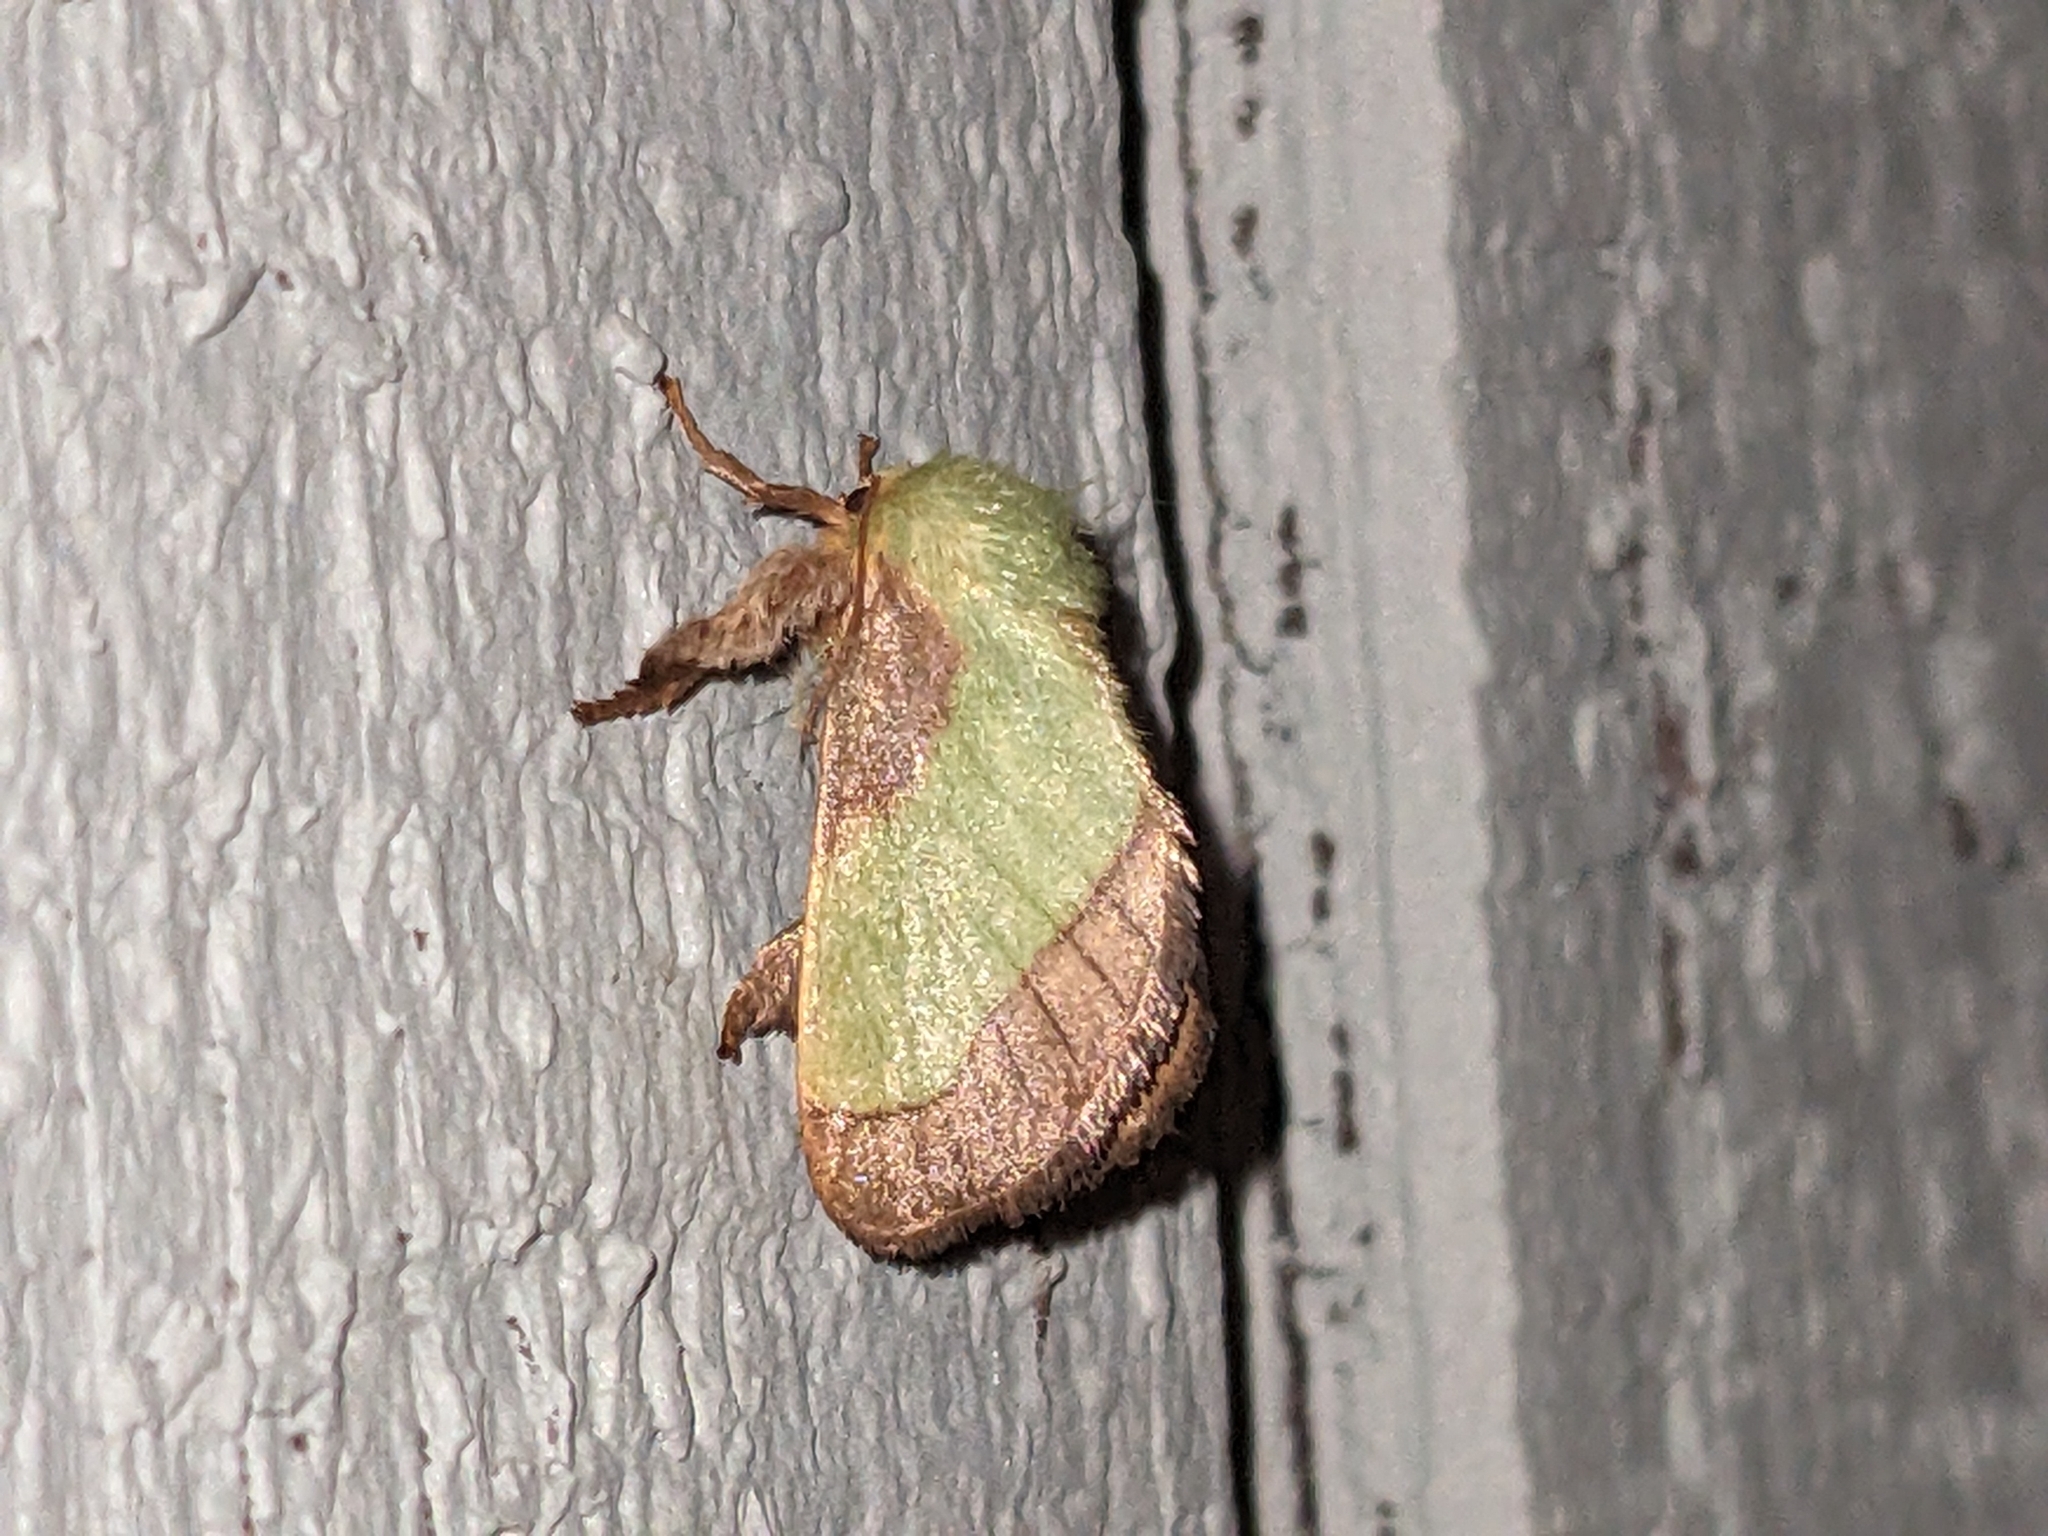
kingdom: Animalia
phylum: Arthropoda
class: Insecta
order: Lepidoptera
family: Limacodidae
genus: Parasa
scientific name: Parasa chloris
